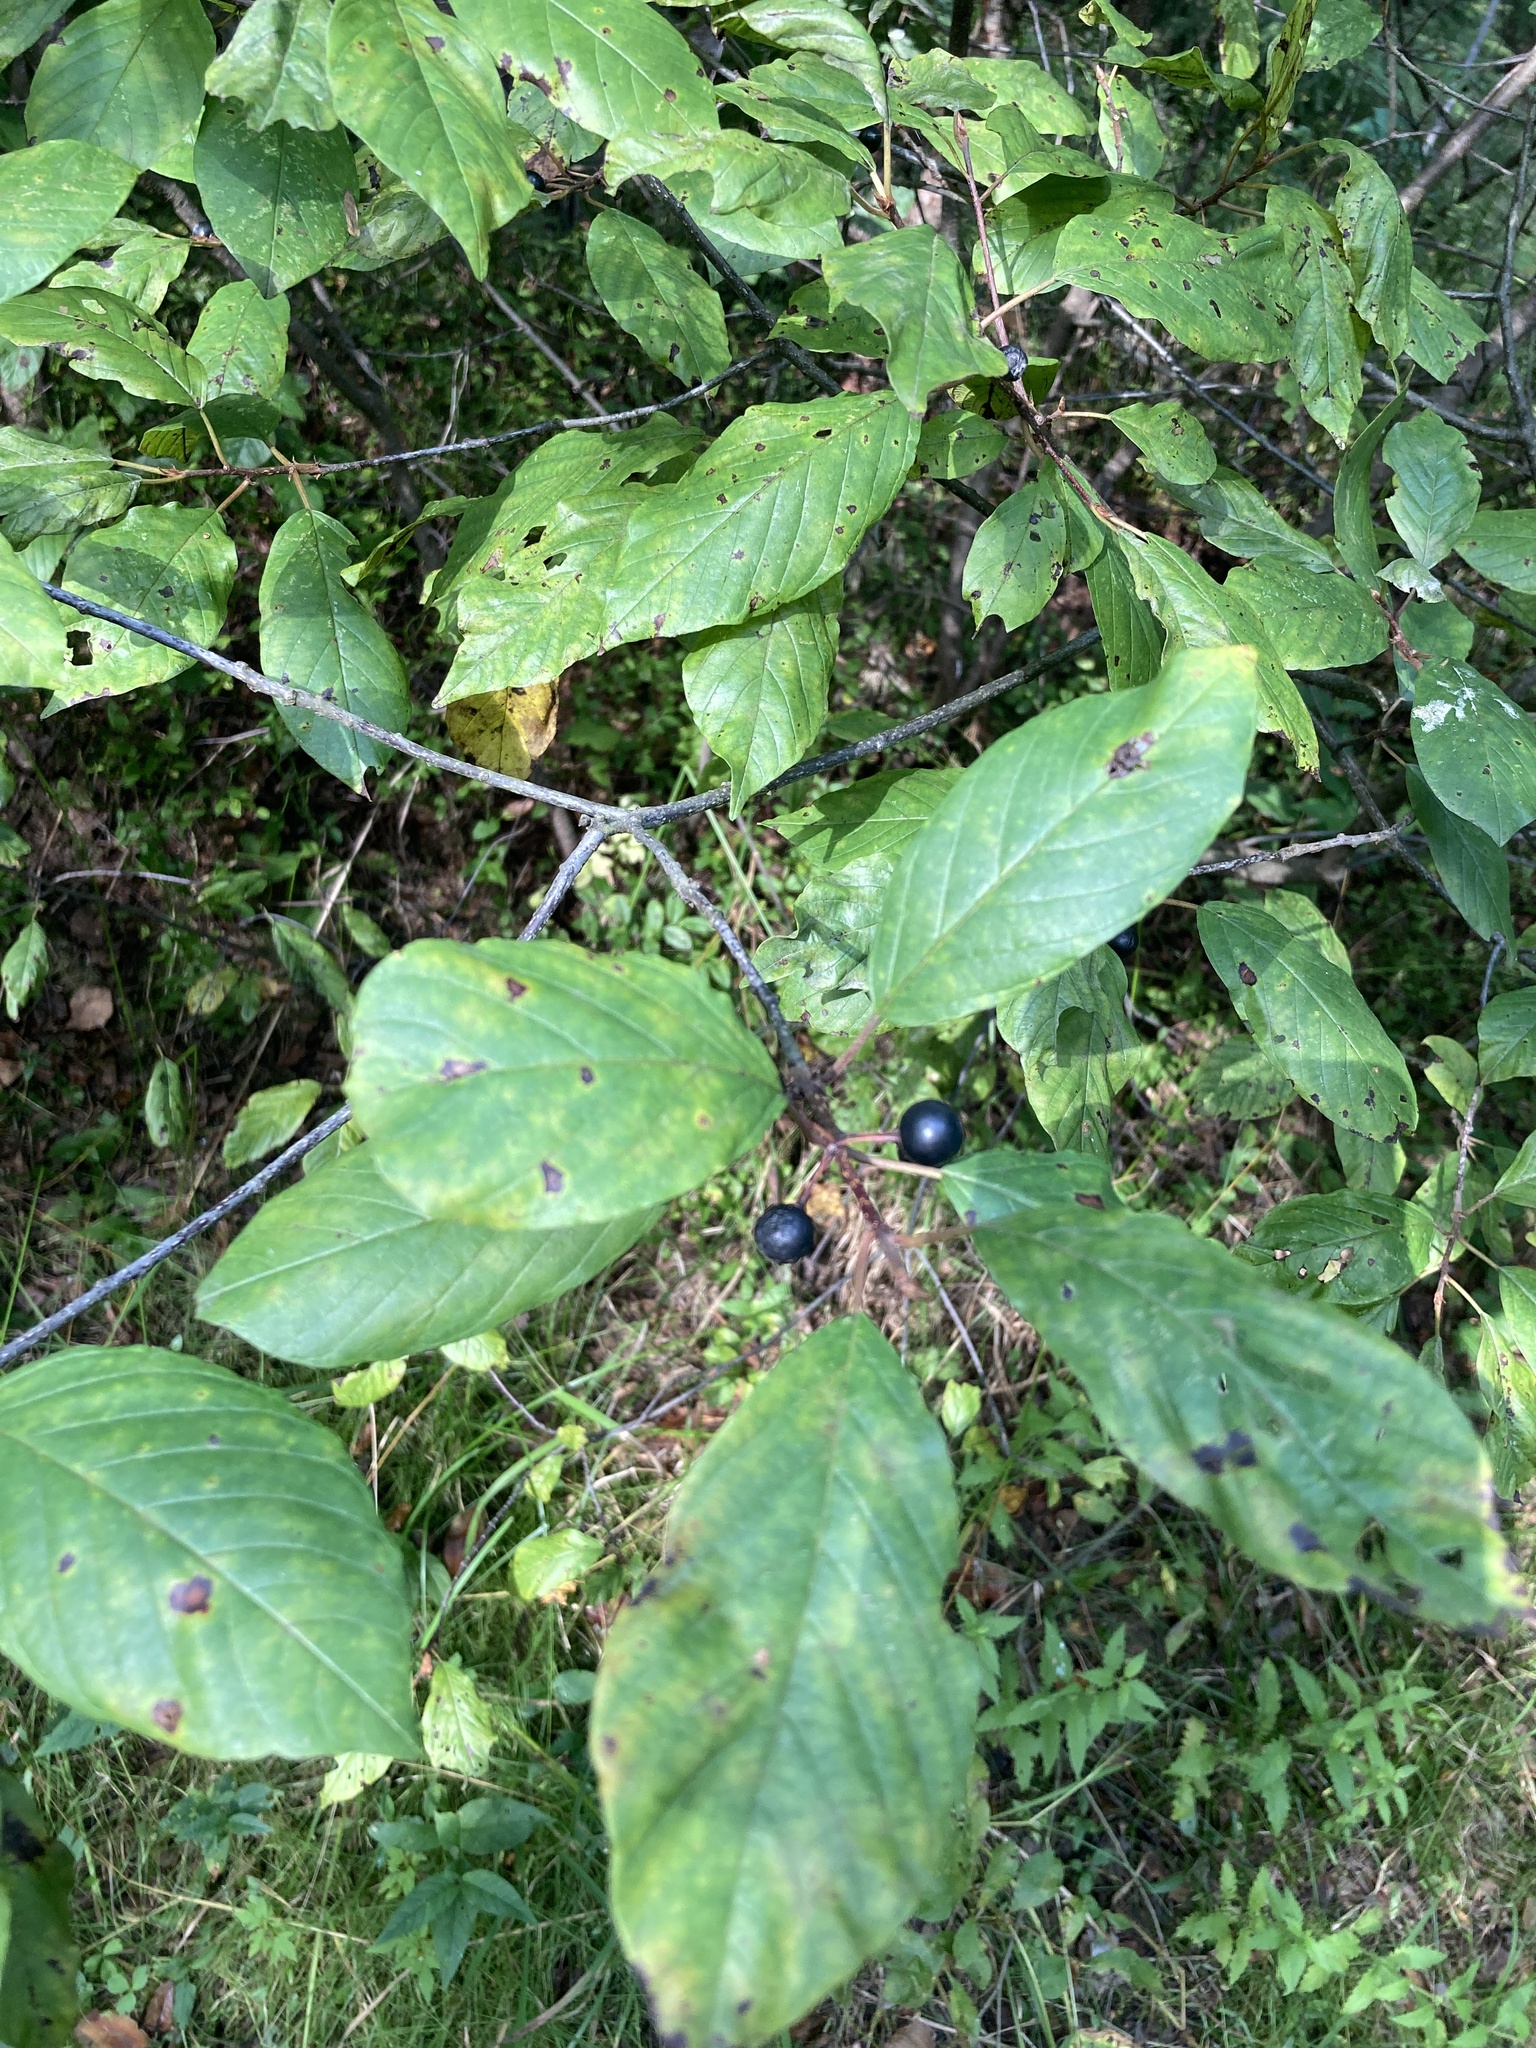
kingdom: Plantae
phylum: Tracheophyta
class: Magnoliopsida
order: Rosales
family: Rhamnaceae
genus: Frangula
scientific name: Frangula alnus
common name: Alder buckthorn
